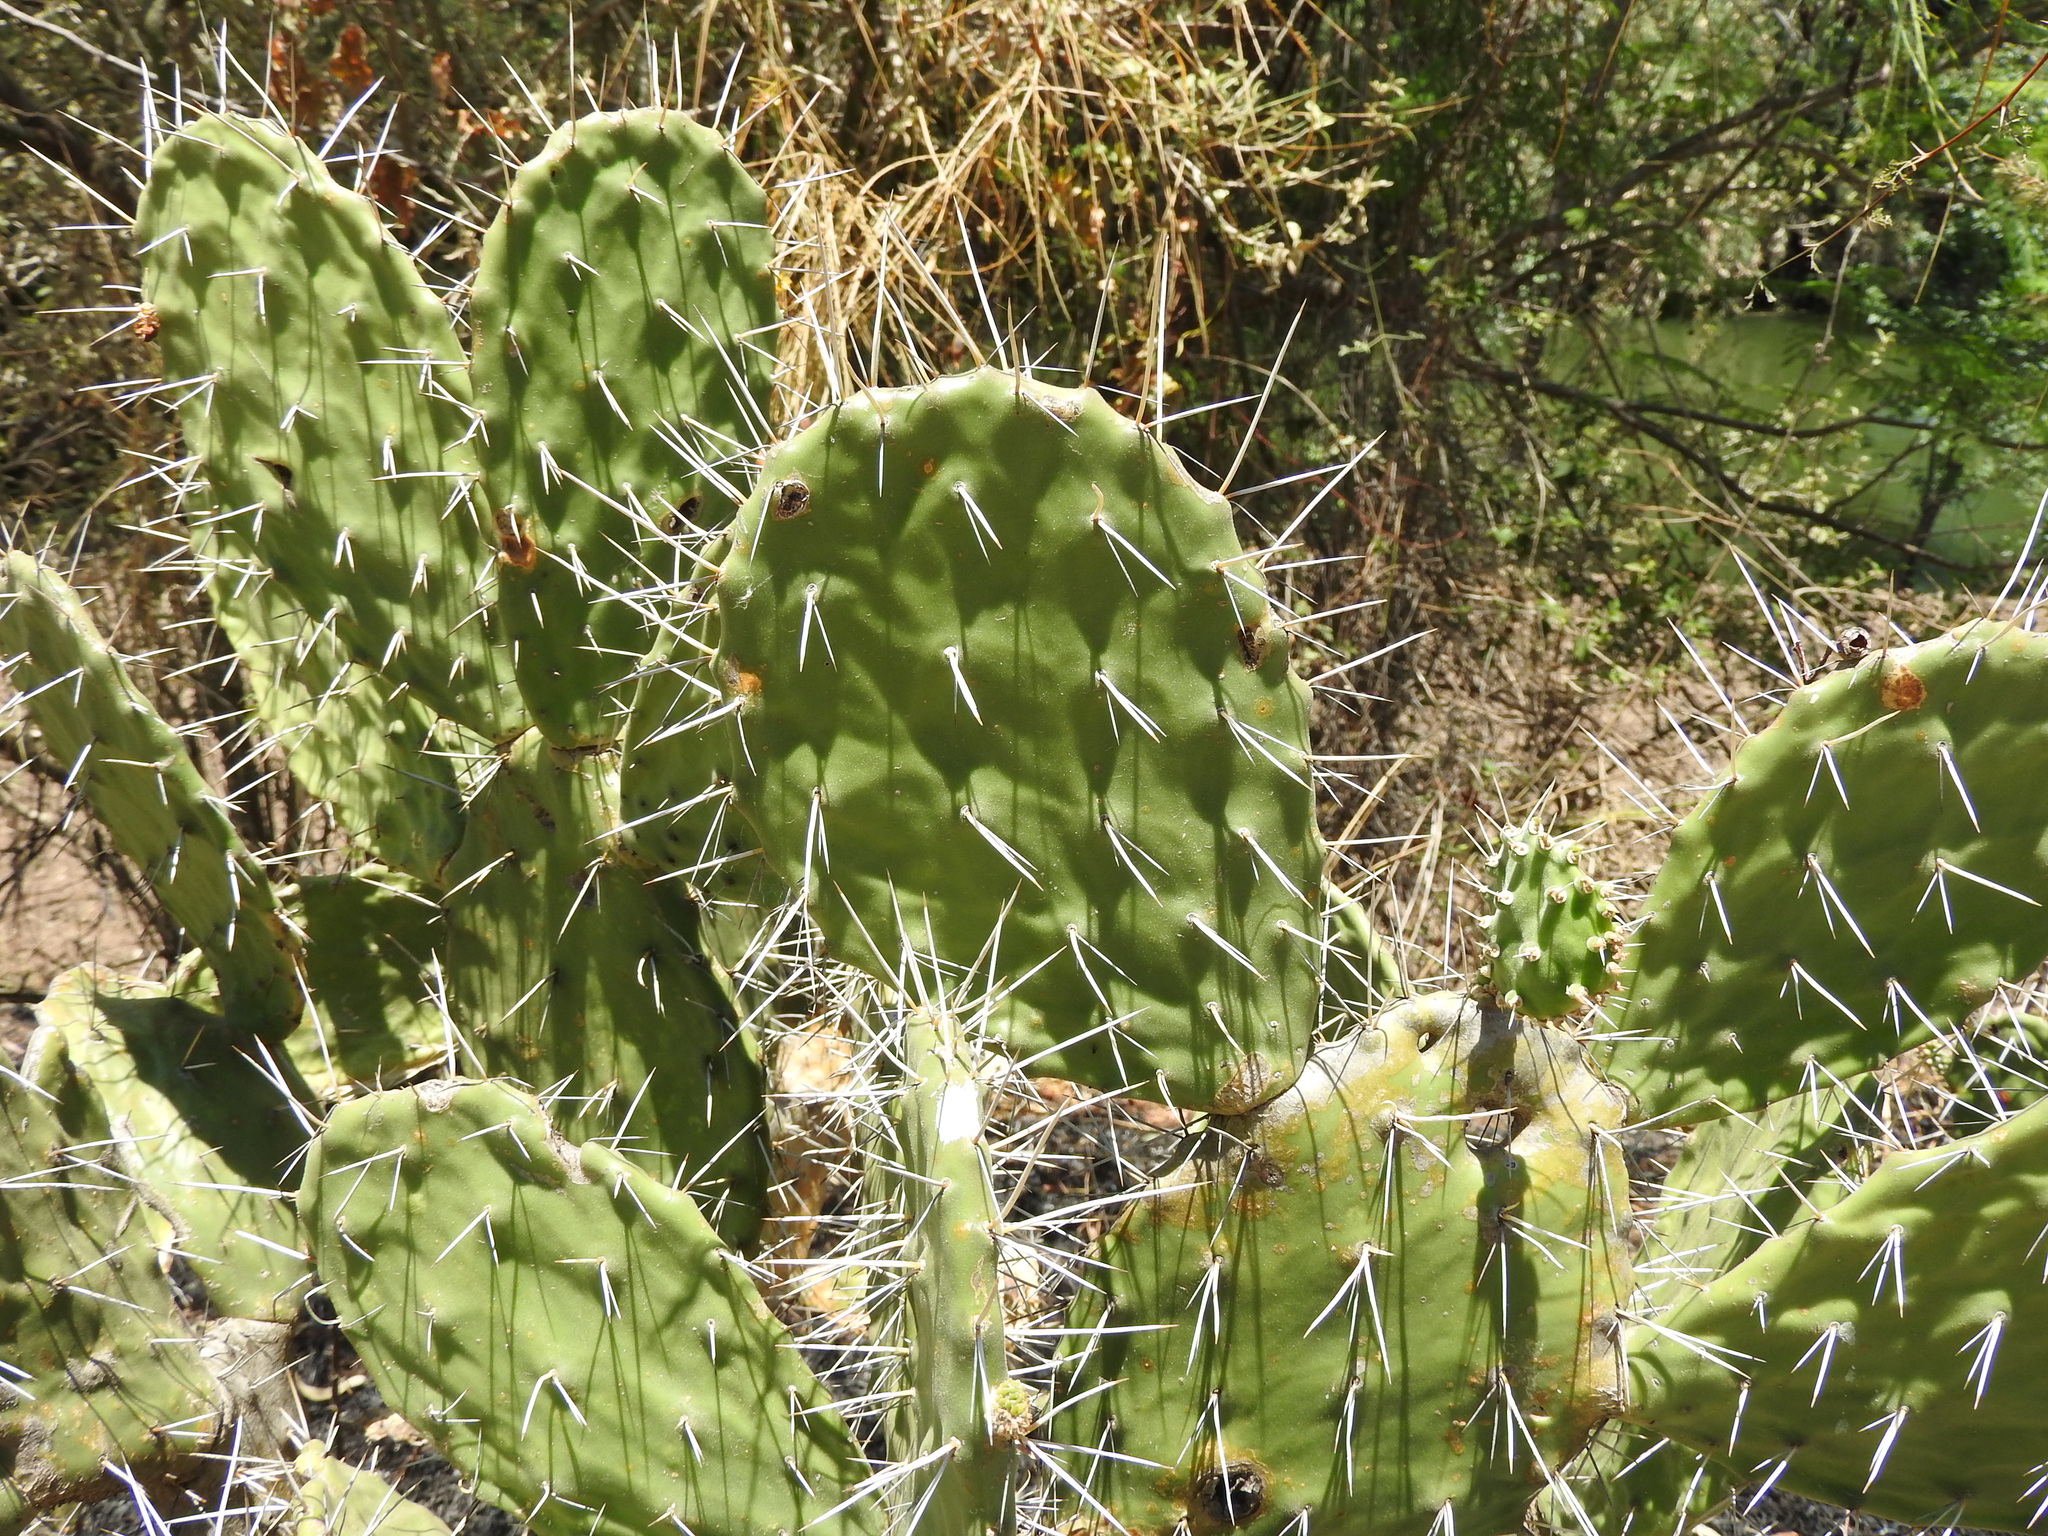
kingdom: Plantae
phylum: Tracheophyta
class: Magnoliopsida
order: Caryophyllales
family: Cactaceae
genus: Opuntia
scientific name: Opuntia tomentosa
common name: Woollyjoint pricklypear
